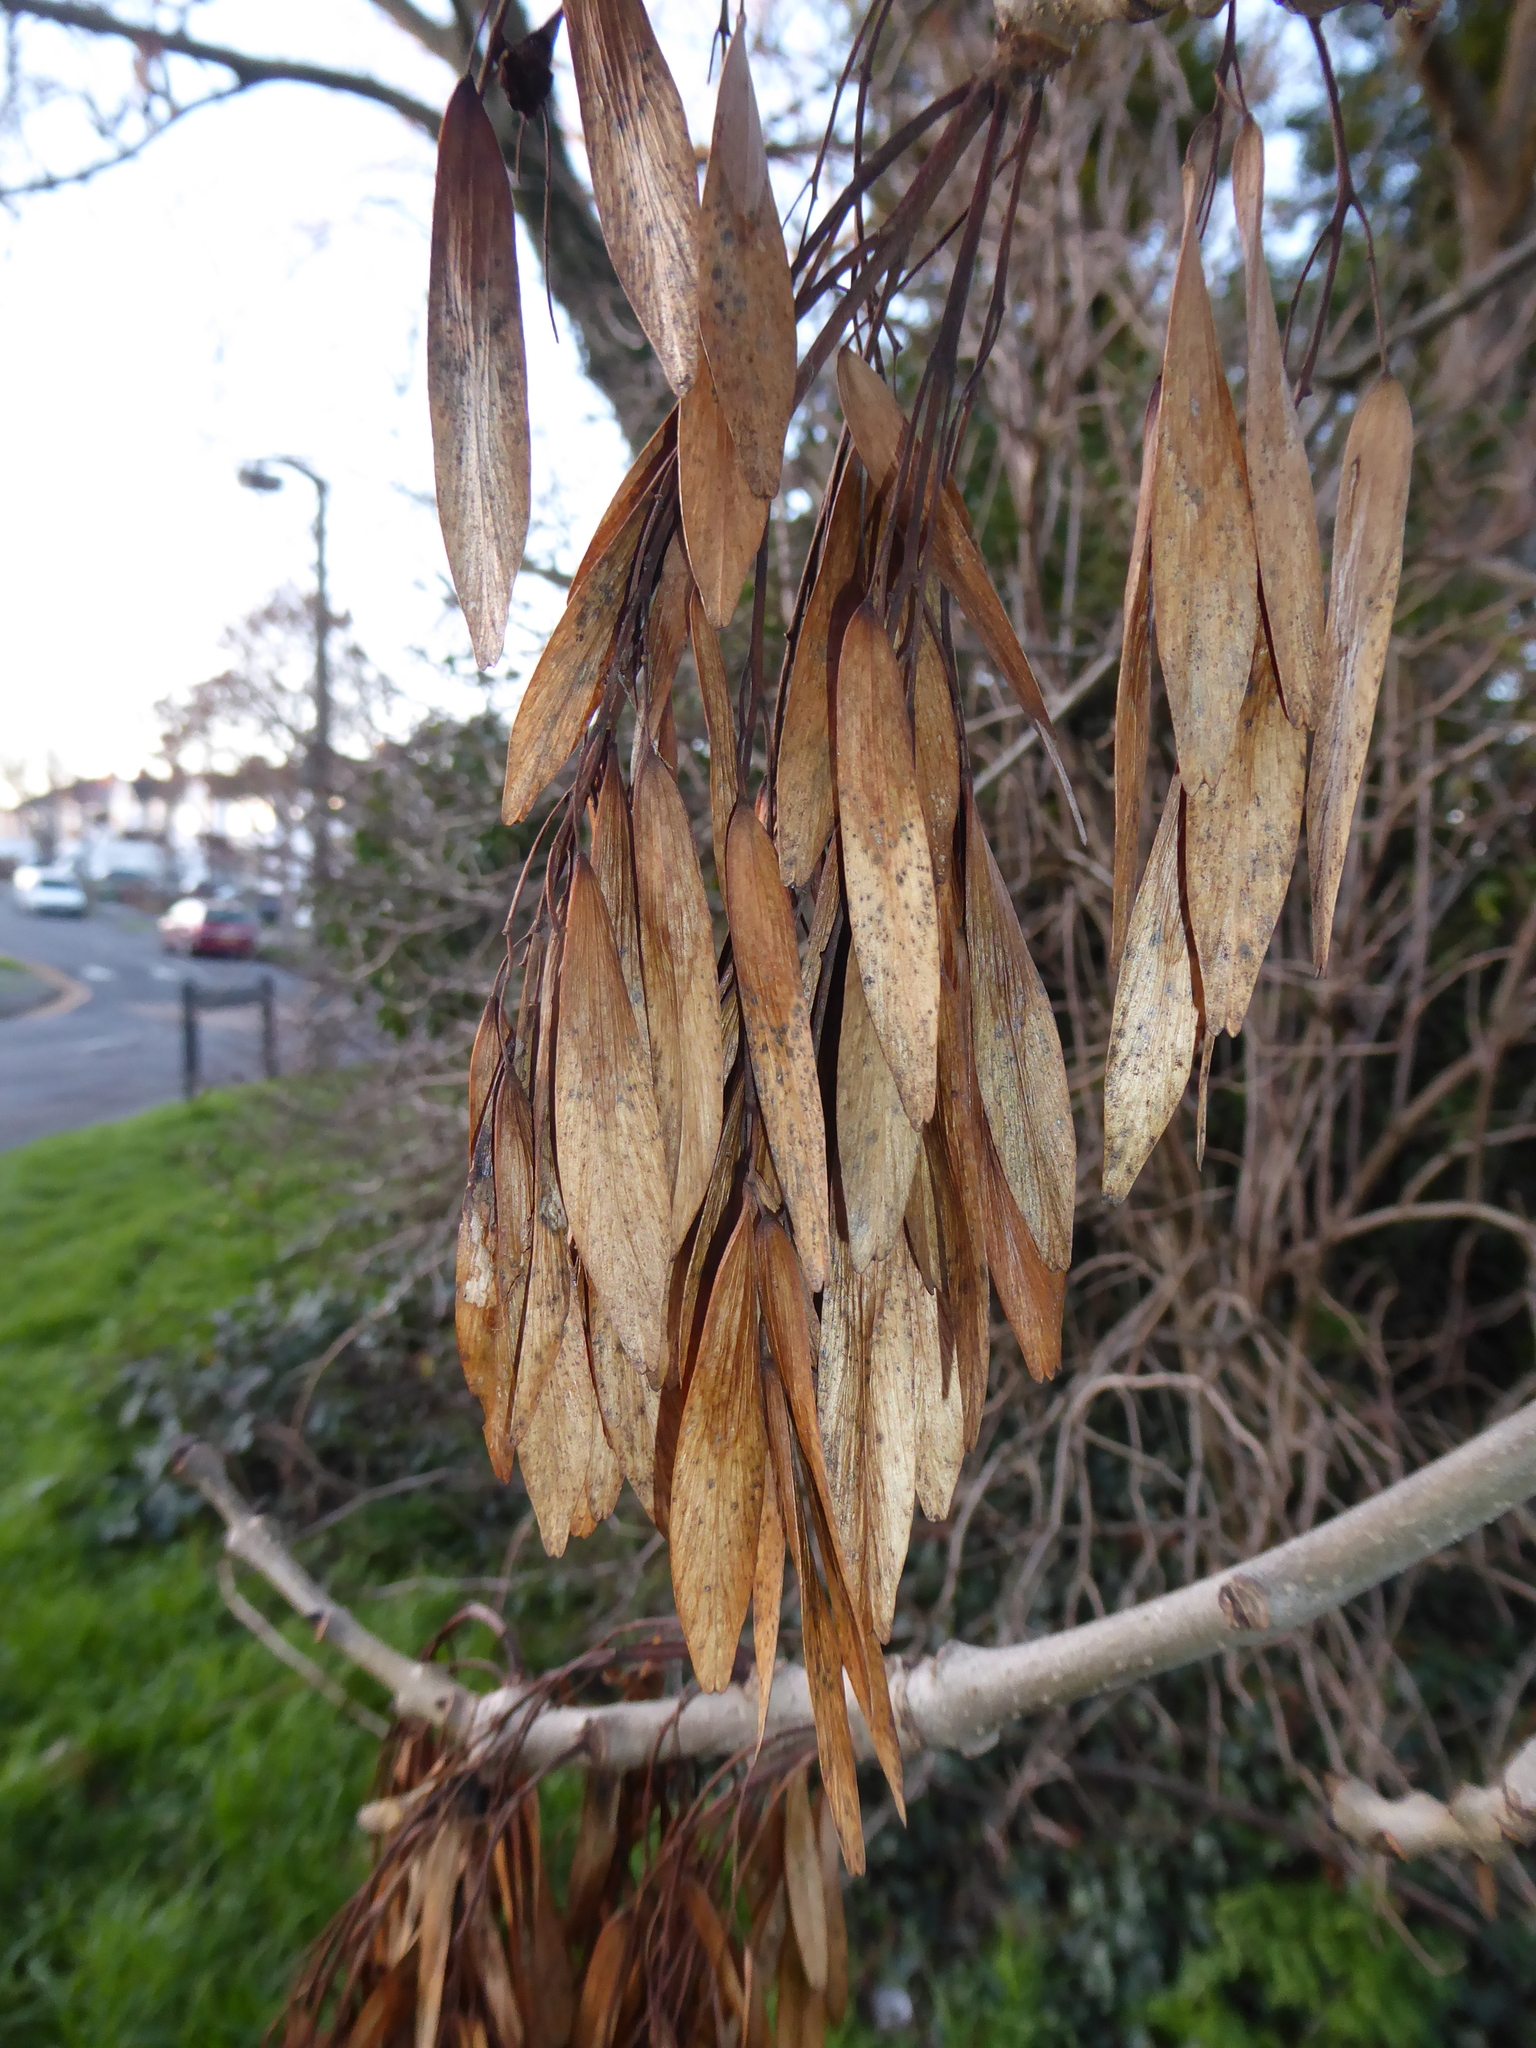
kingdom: Plantae
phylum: Tracheophyta
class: Magnoliopsida
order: Lamiales
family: Oleaceae
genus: Fraxinus
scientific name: Fraxinus excelsior
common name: European ash
